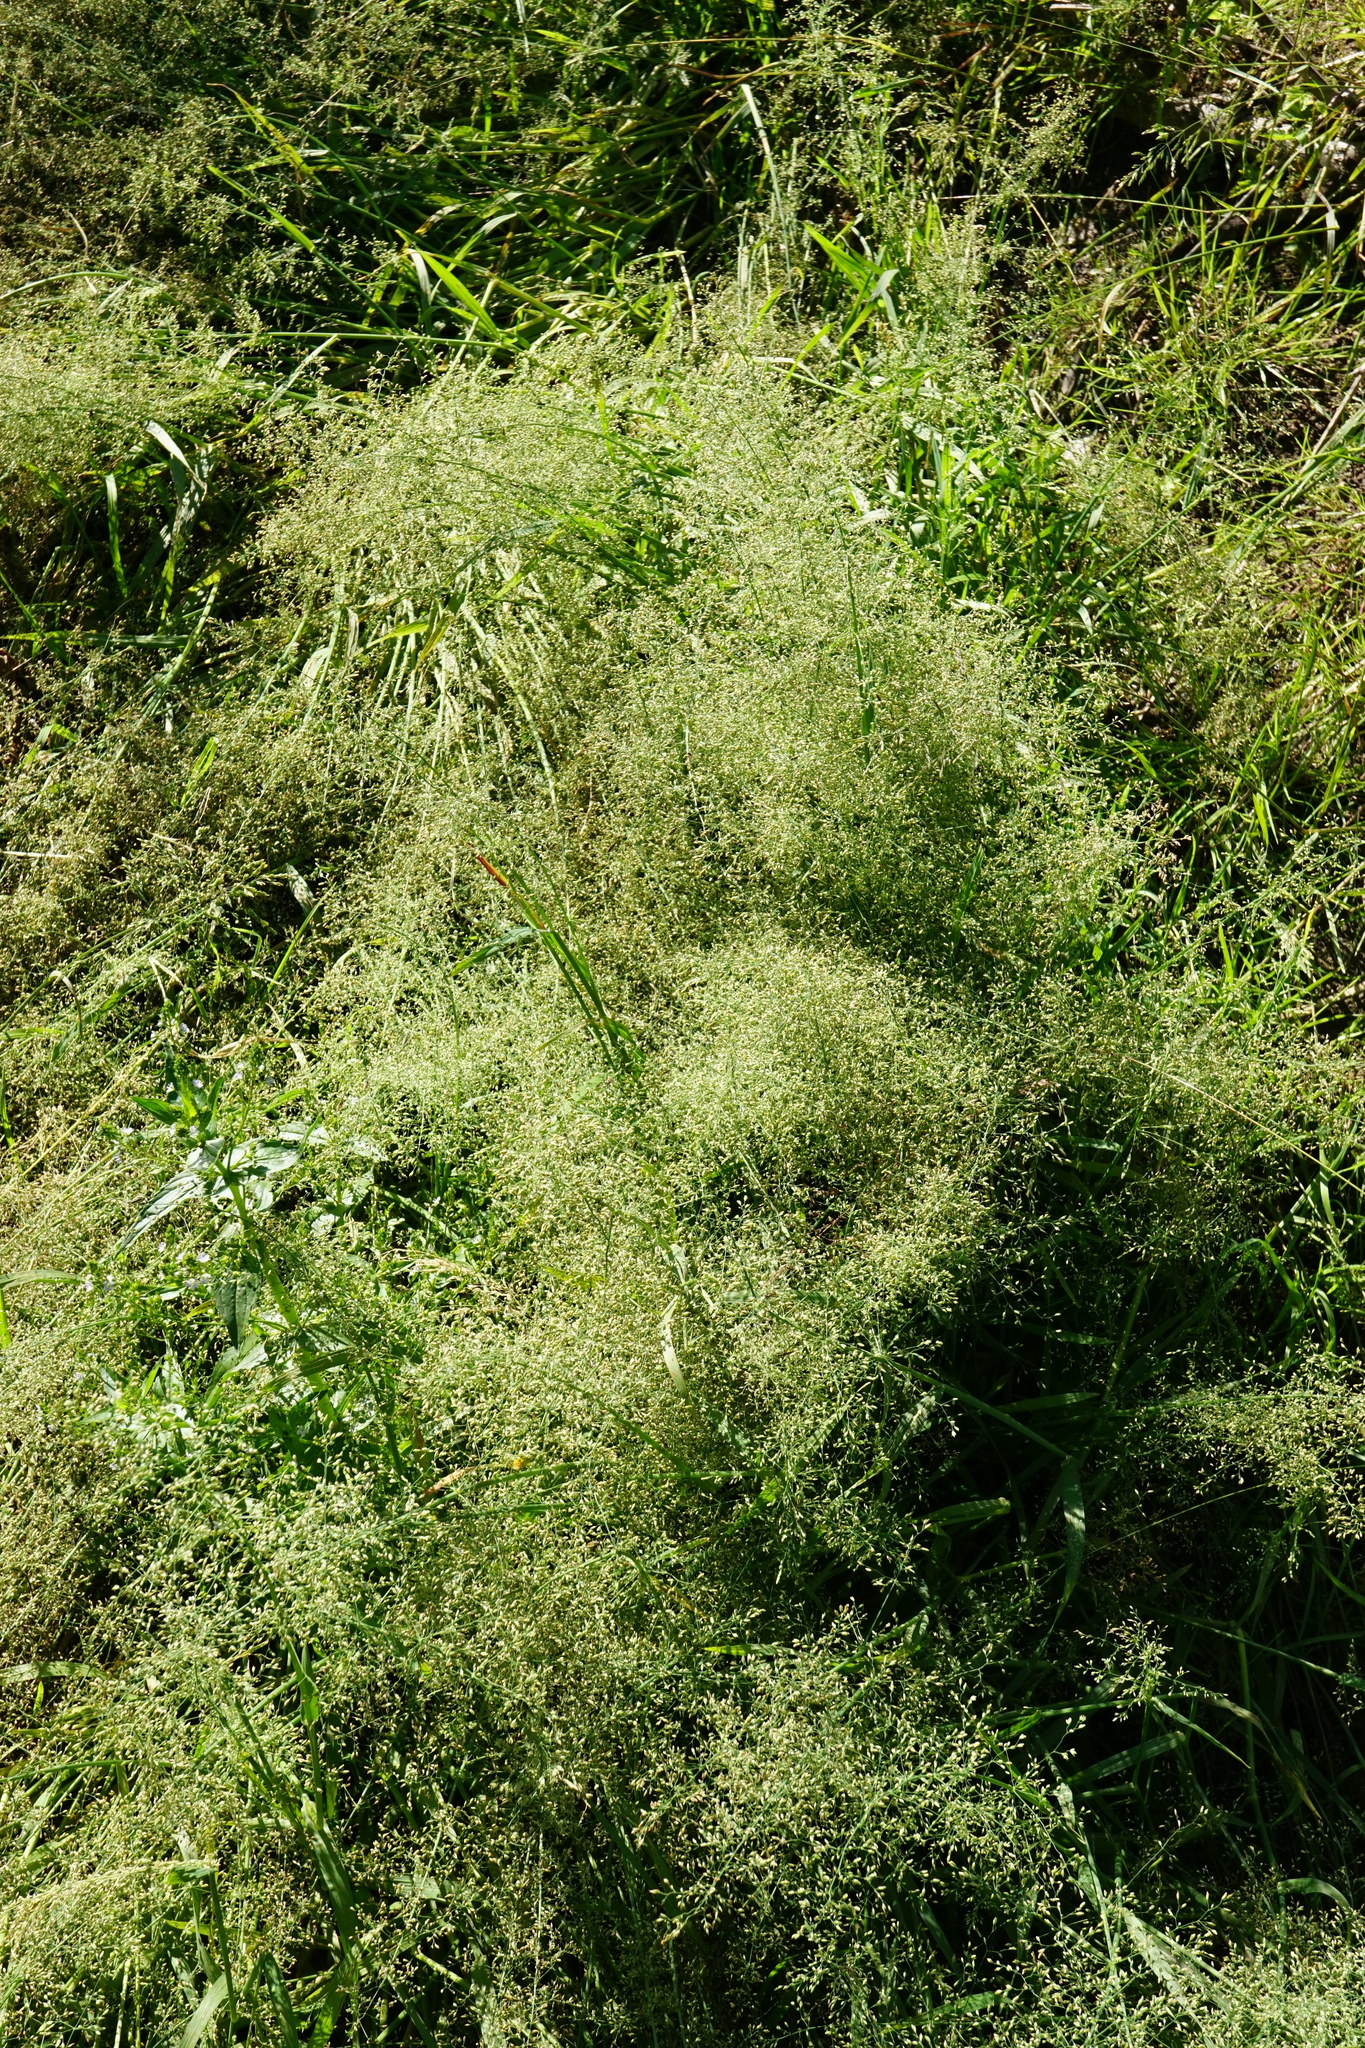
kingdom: Plantae
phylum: Tracheophyta
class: Liliopsida
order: Poales
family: Poaceae
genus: Catabrosa
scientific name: Catabrosa aquatica
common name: Whorl-grass
